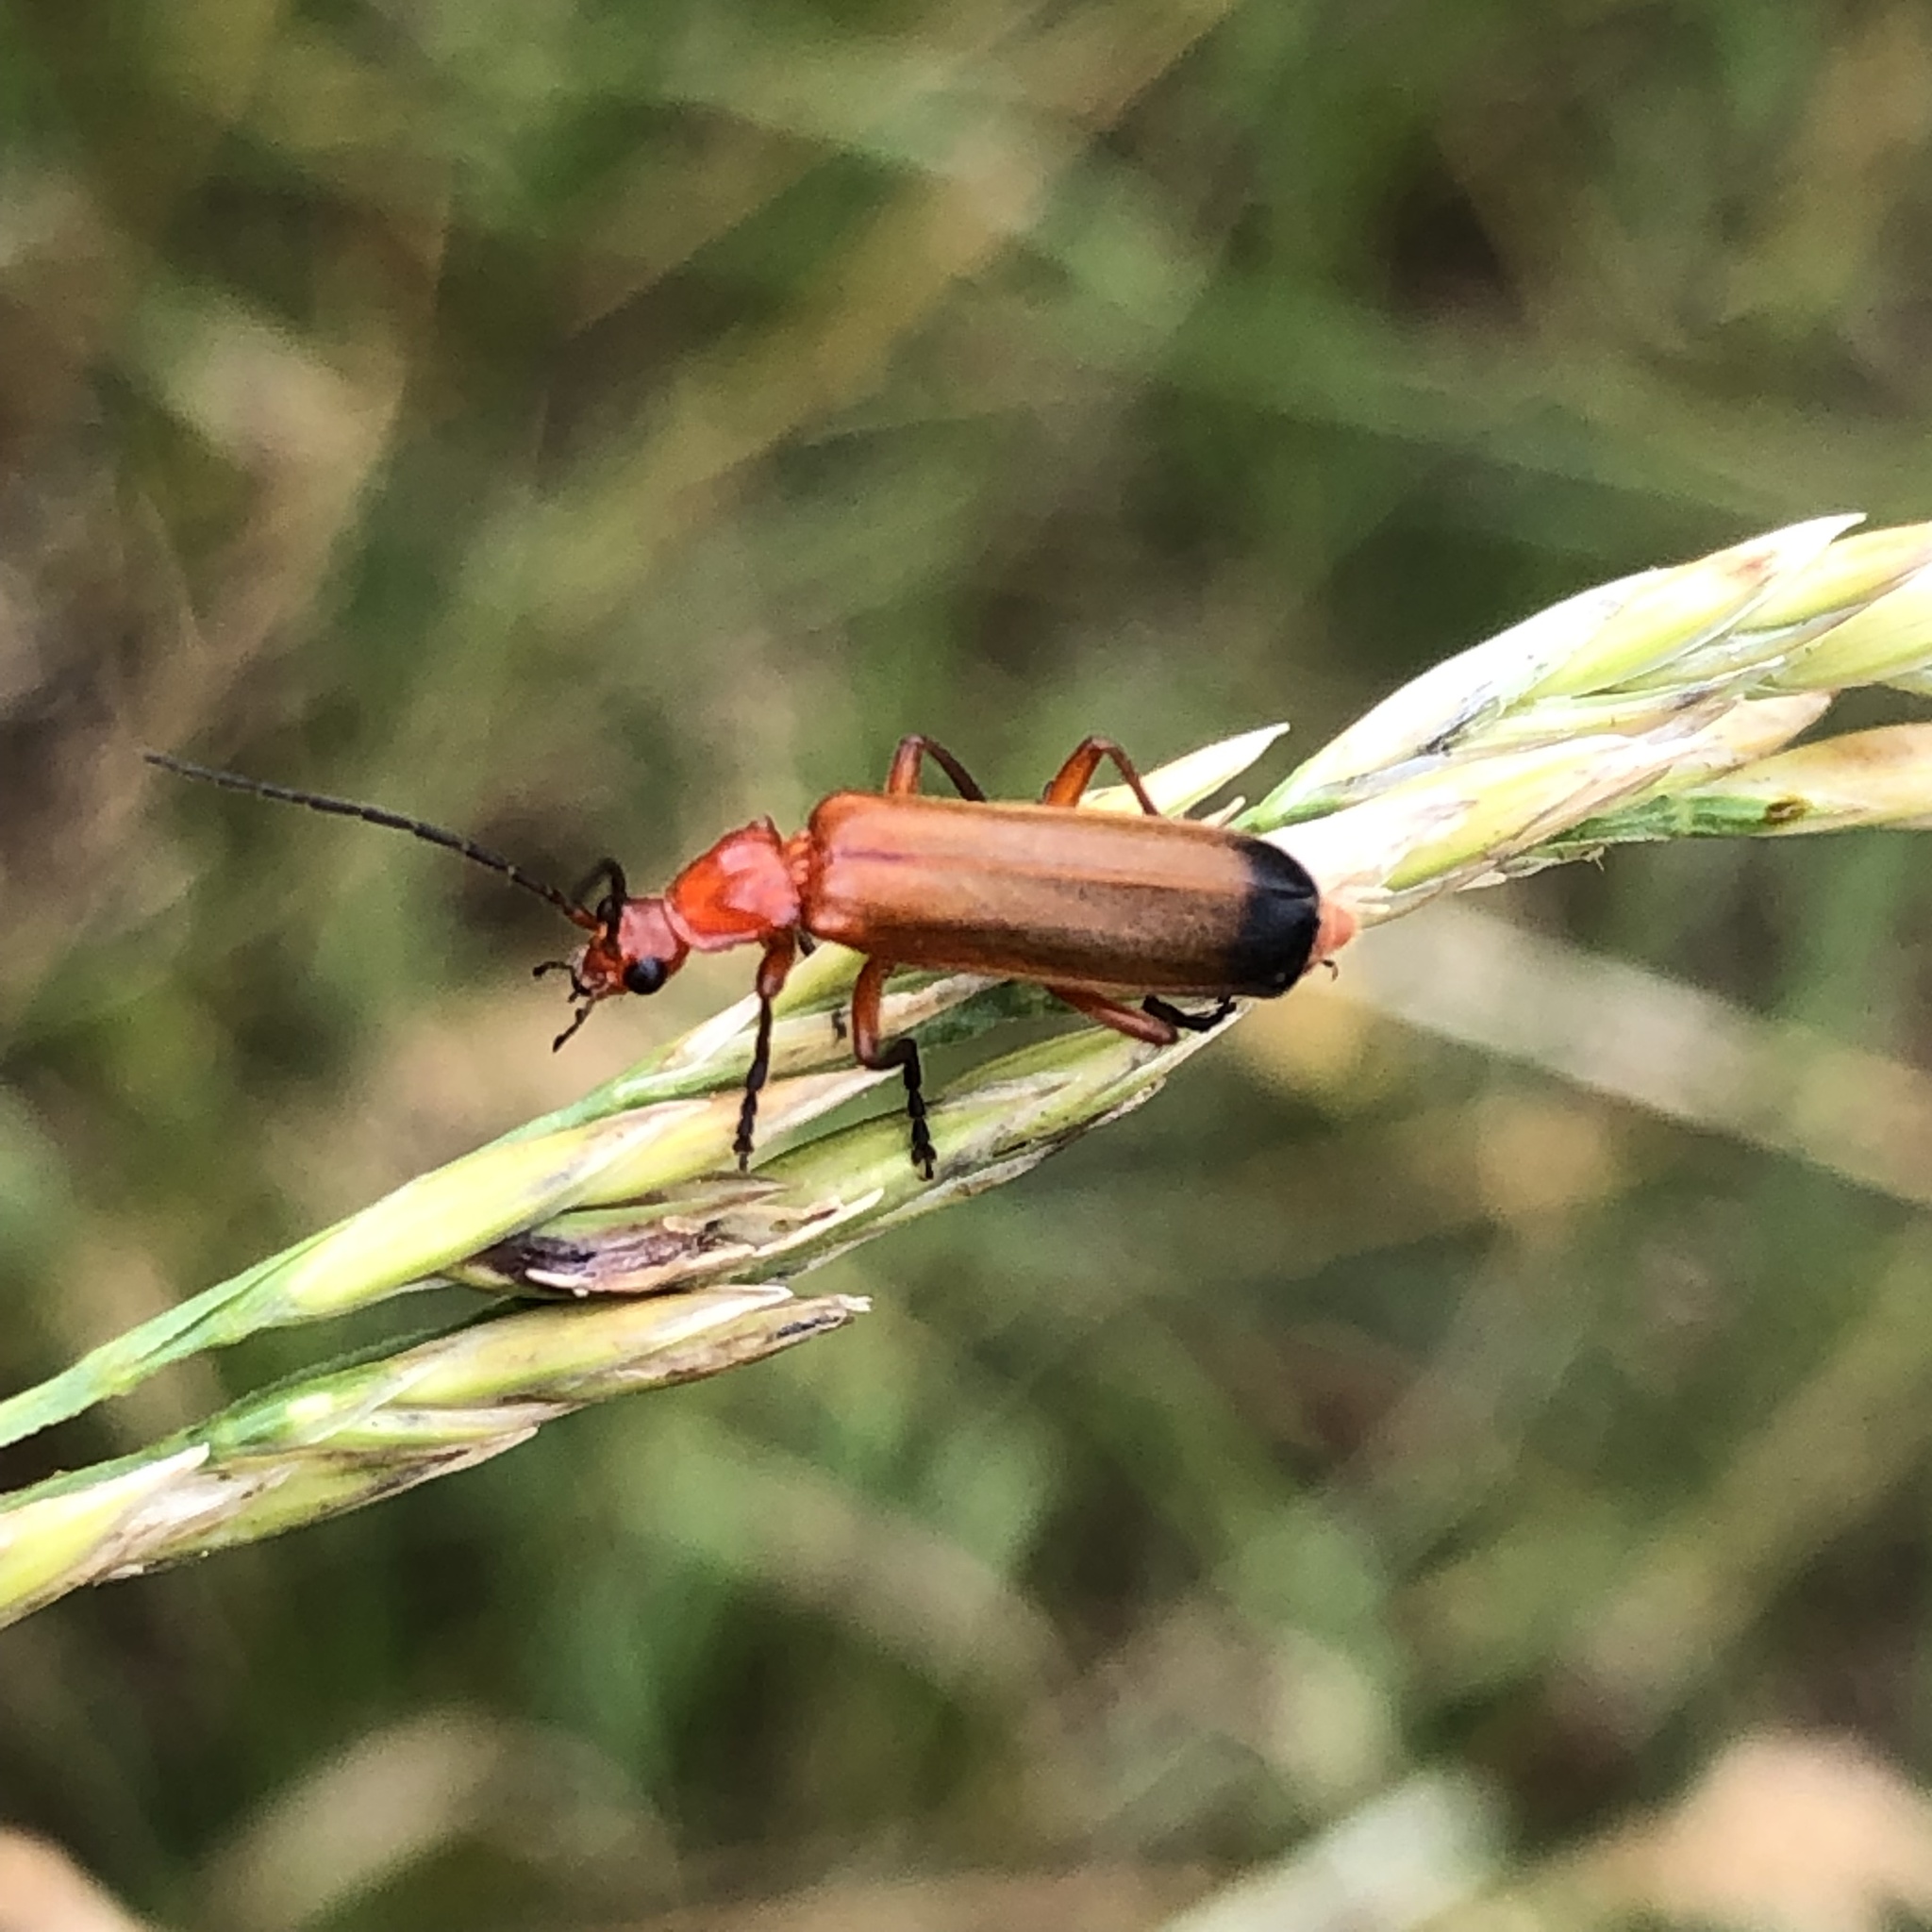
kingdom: Animalia
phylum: Arthropoda
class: Insecta
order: Coleoptera
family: Cantharidae
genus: Rhagonycha
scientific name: Rhagonycha fulva
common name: Common red soldier beetle
